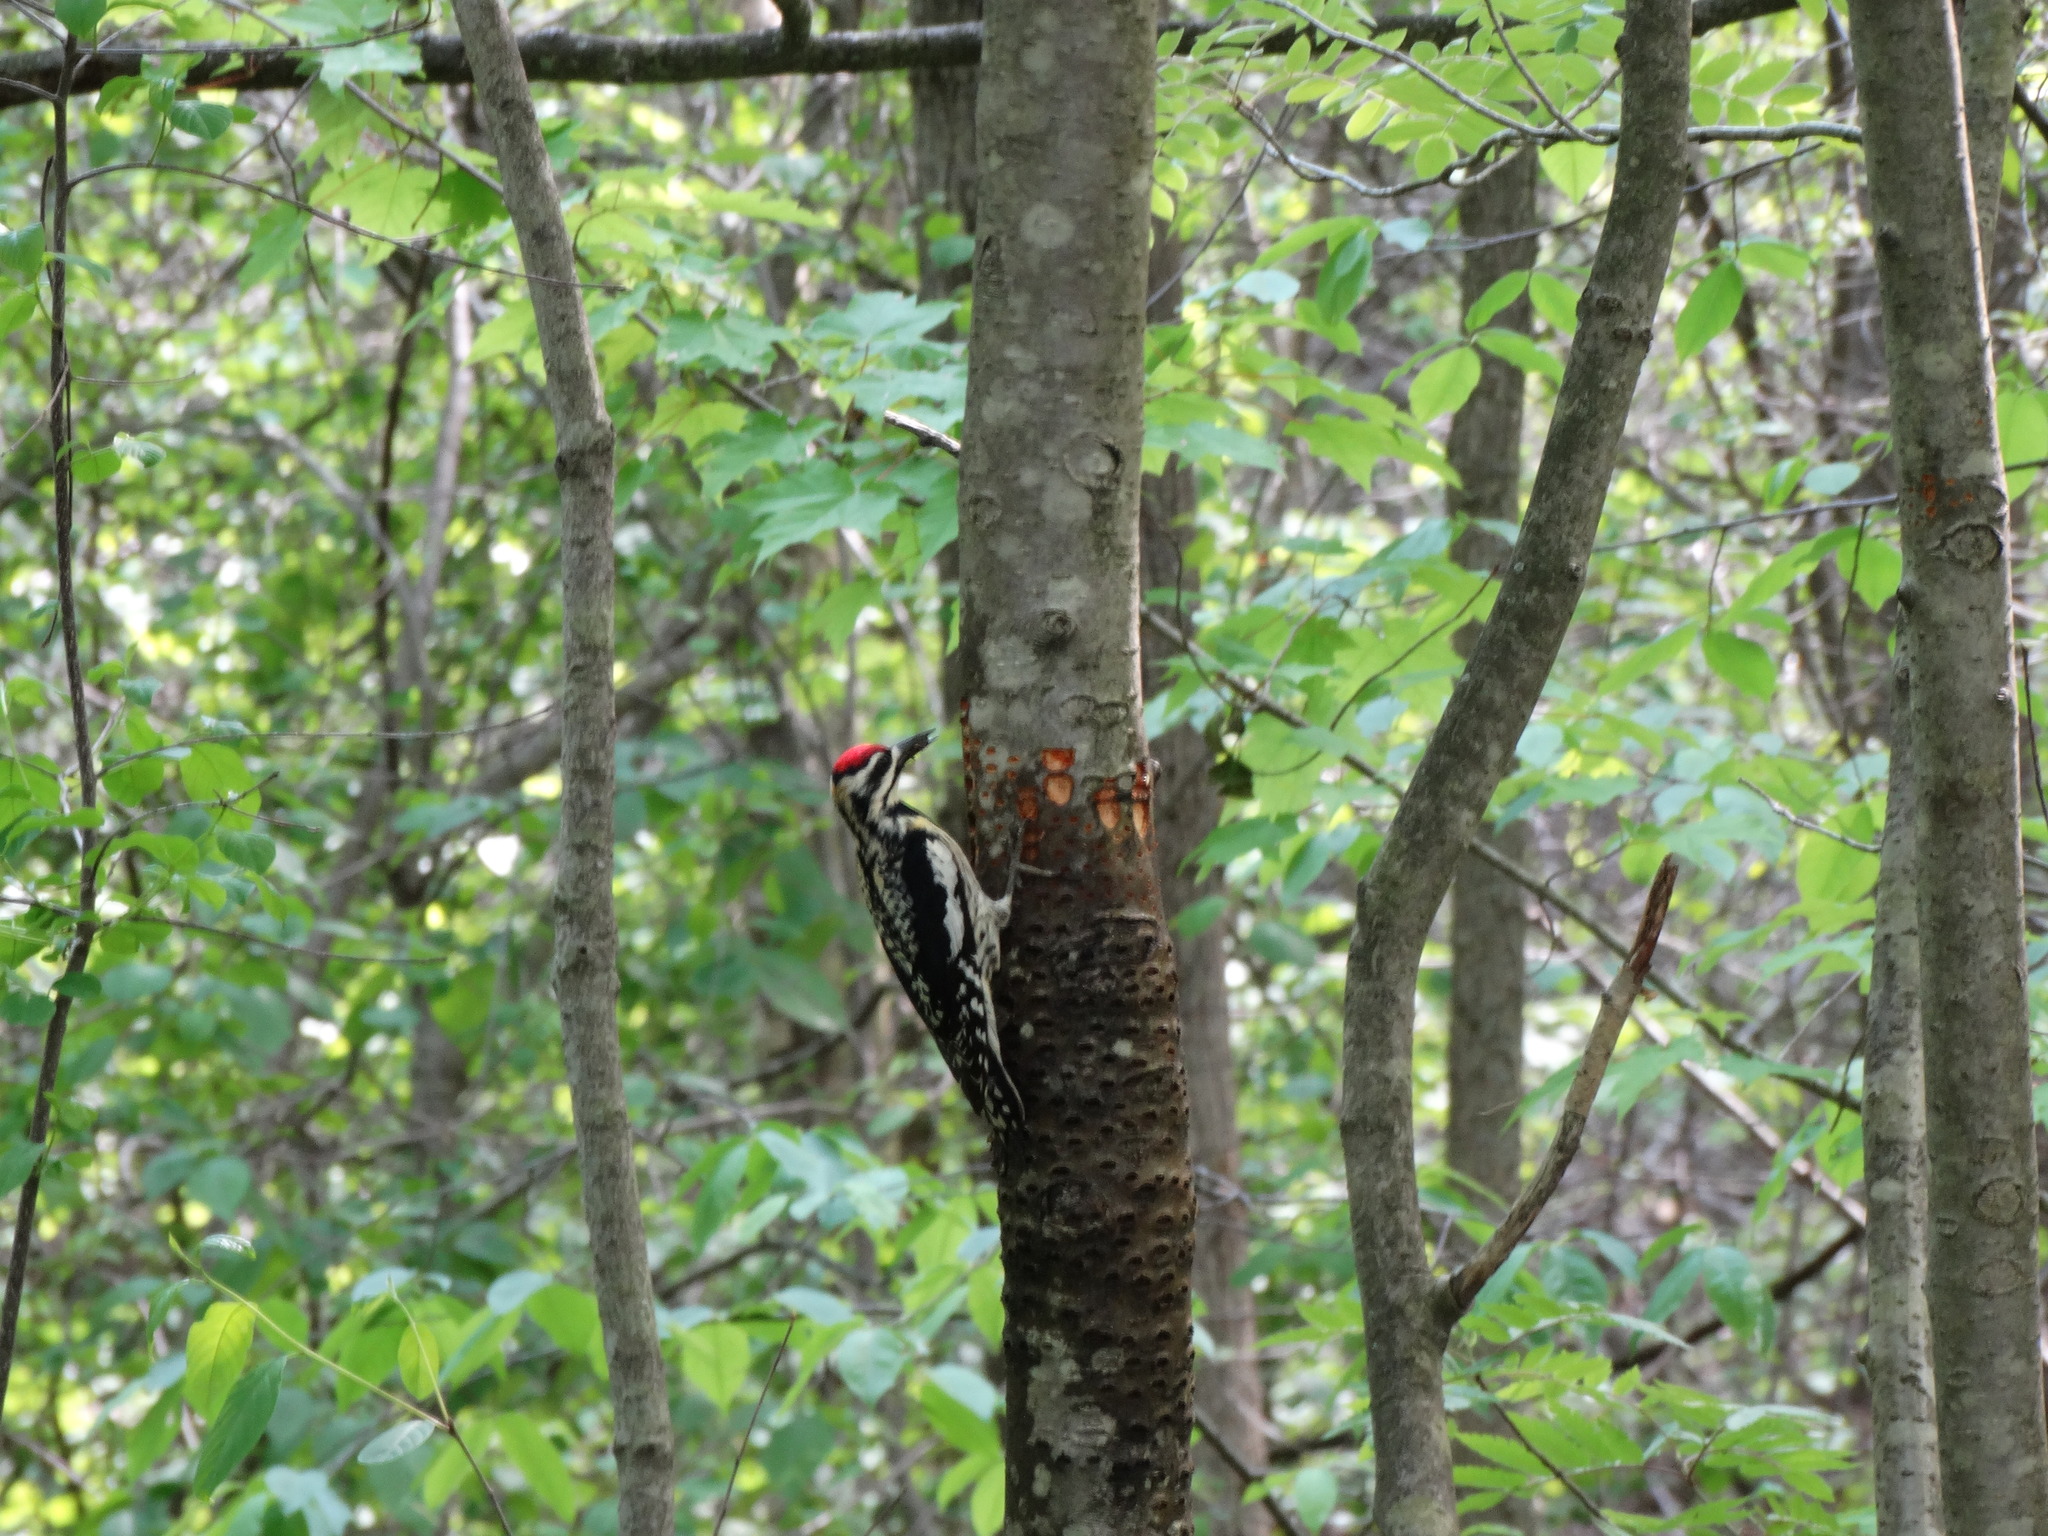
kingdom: Animalia
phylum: Chordata
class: Aves
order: Piciformes
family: Picidae
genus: Sphyrapicus
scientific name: Sphyrapicus varius
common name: Yellow-bellied sapsucker
